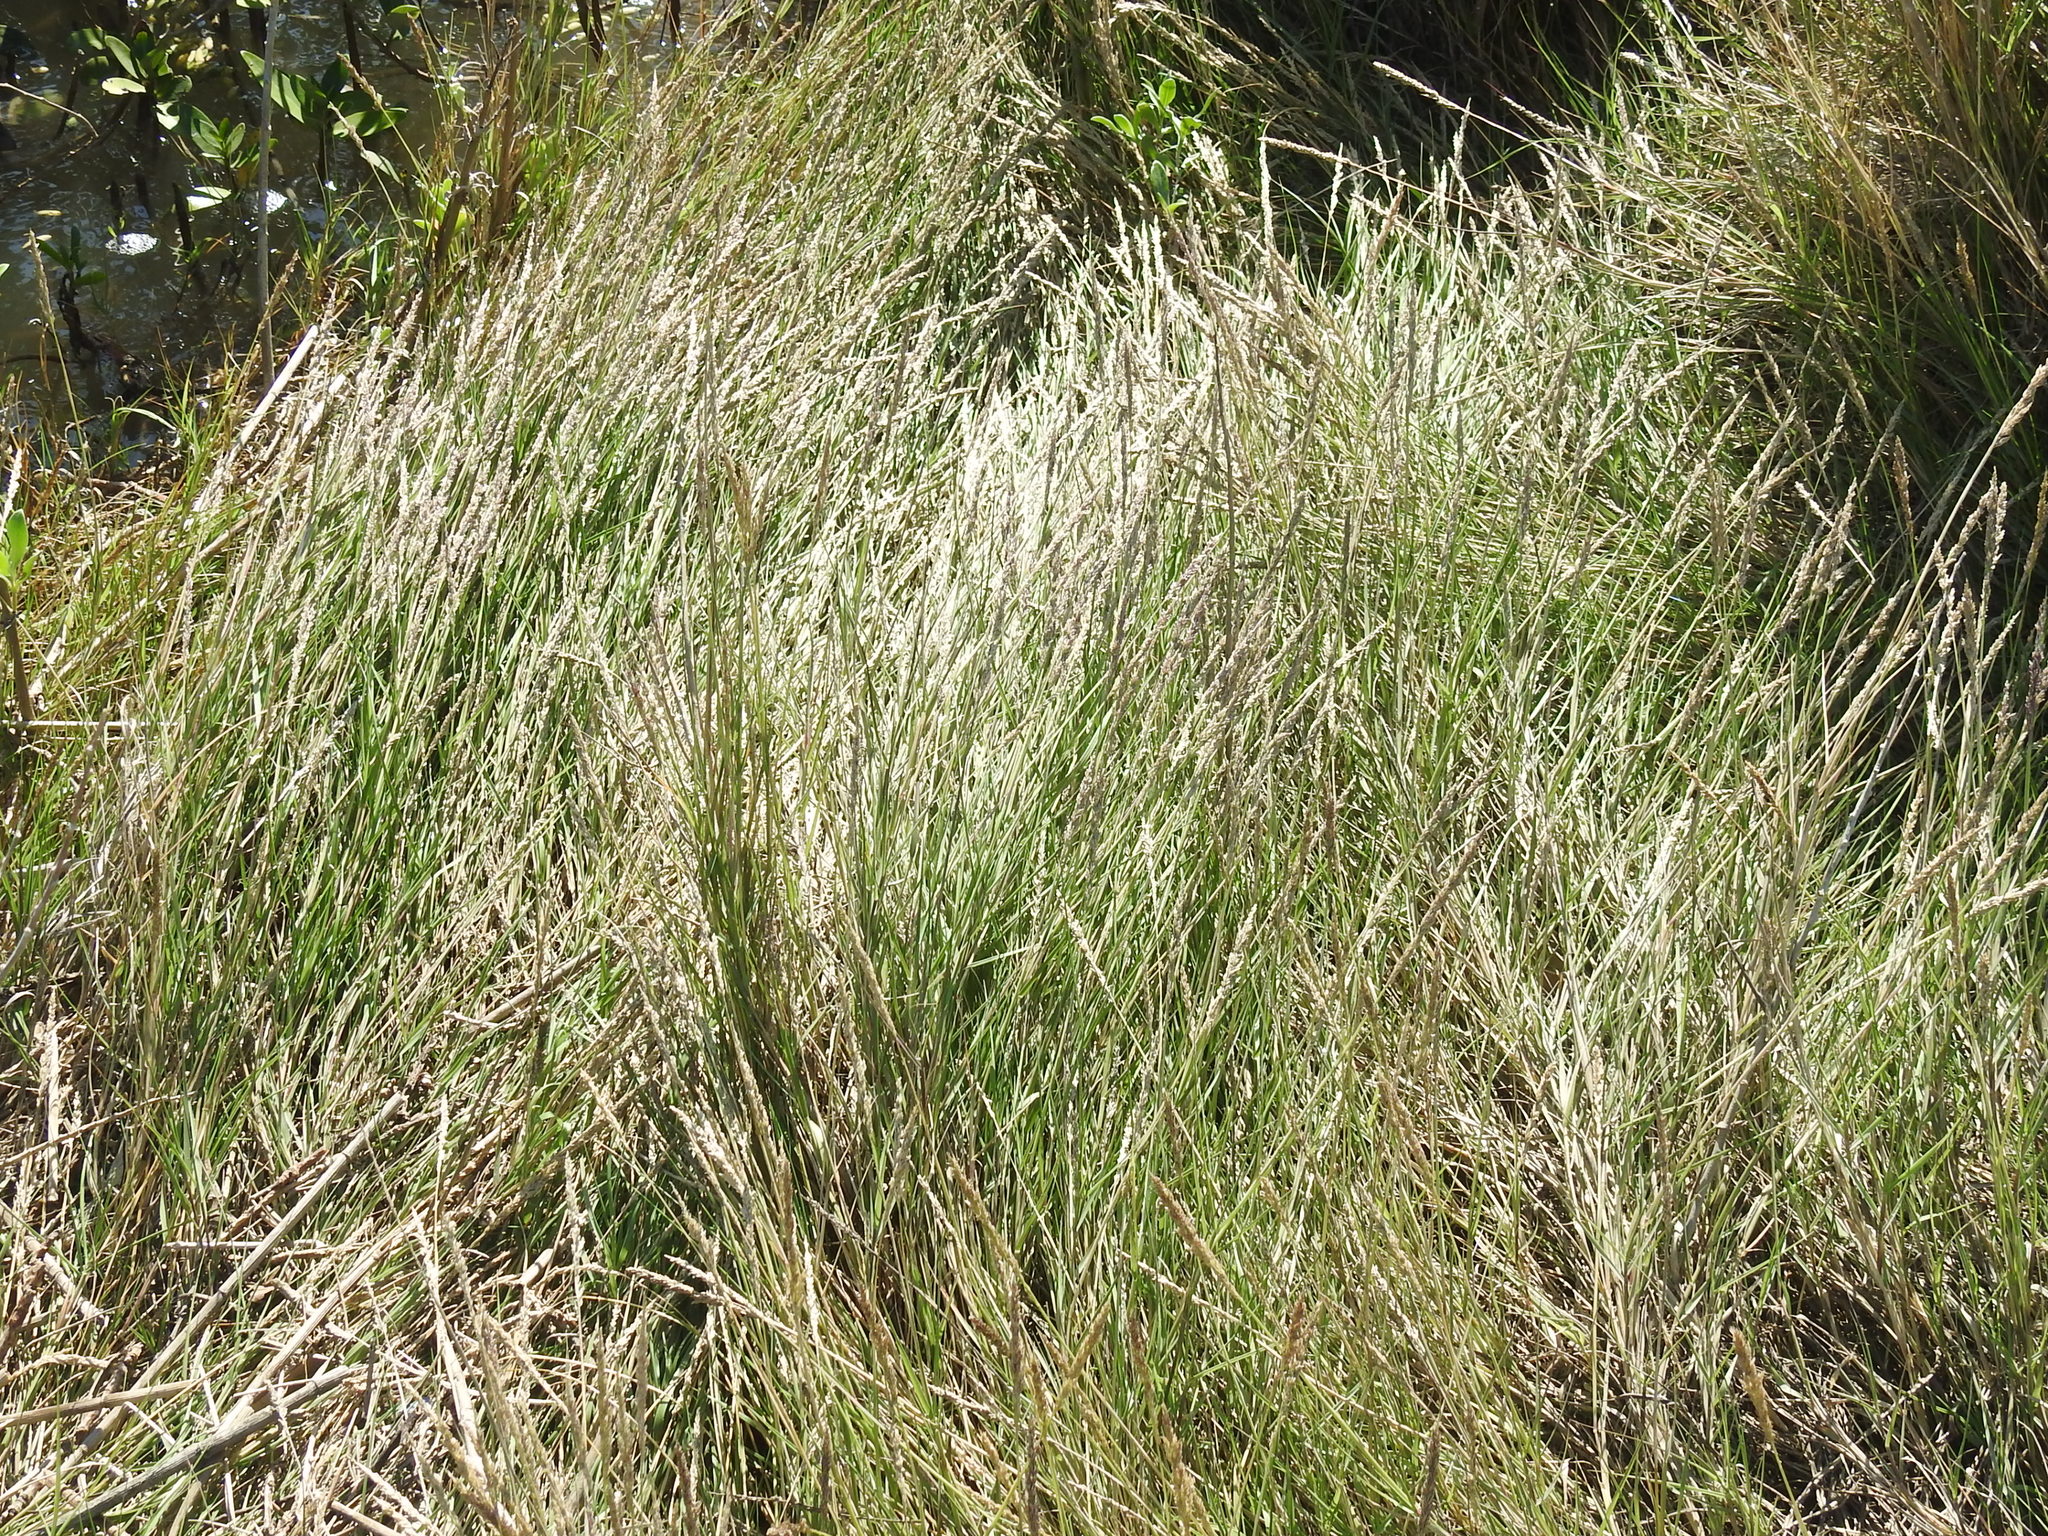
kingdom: Plantae
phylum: Tracheophyta
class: Liliopsida
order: Poales
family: Poaceae
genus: Sporobolus
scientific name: Sporobolus virginicus
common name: Beach dropseed
